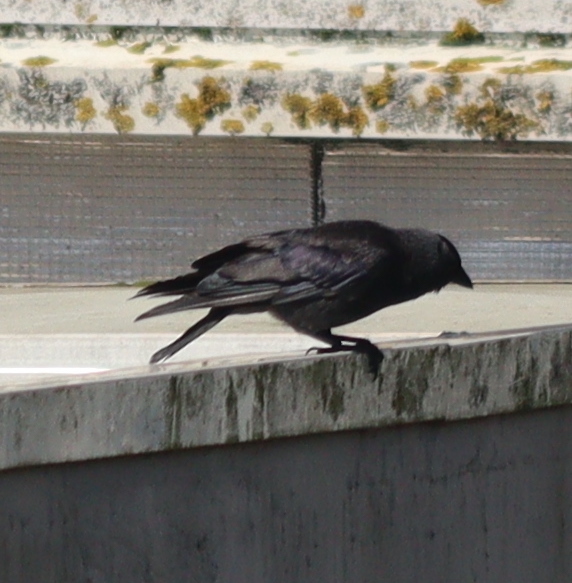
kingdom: Animalia
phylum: Chordata
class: Aves
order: Passeriformes
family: Corvidae
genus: Coloeus
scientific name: Coloeus monedula
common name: Western jackdaw
